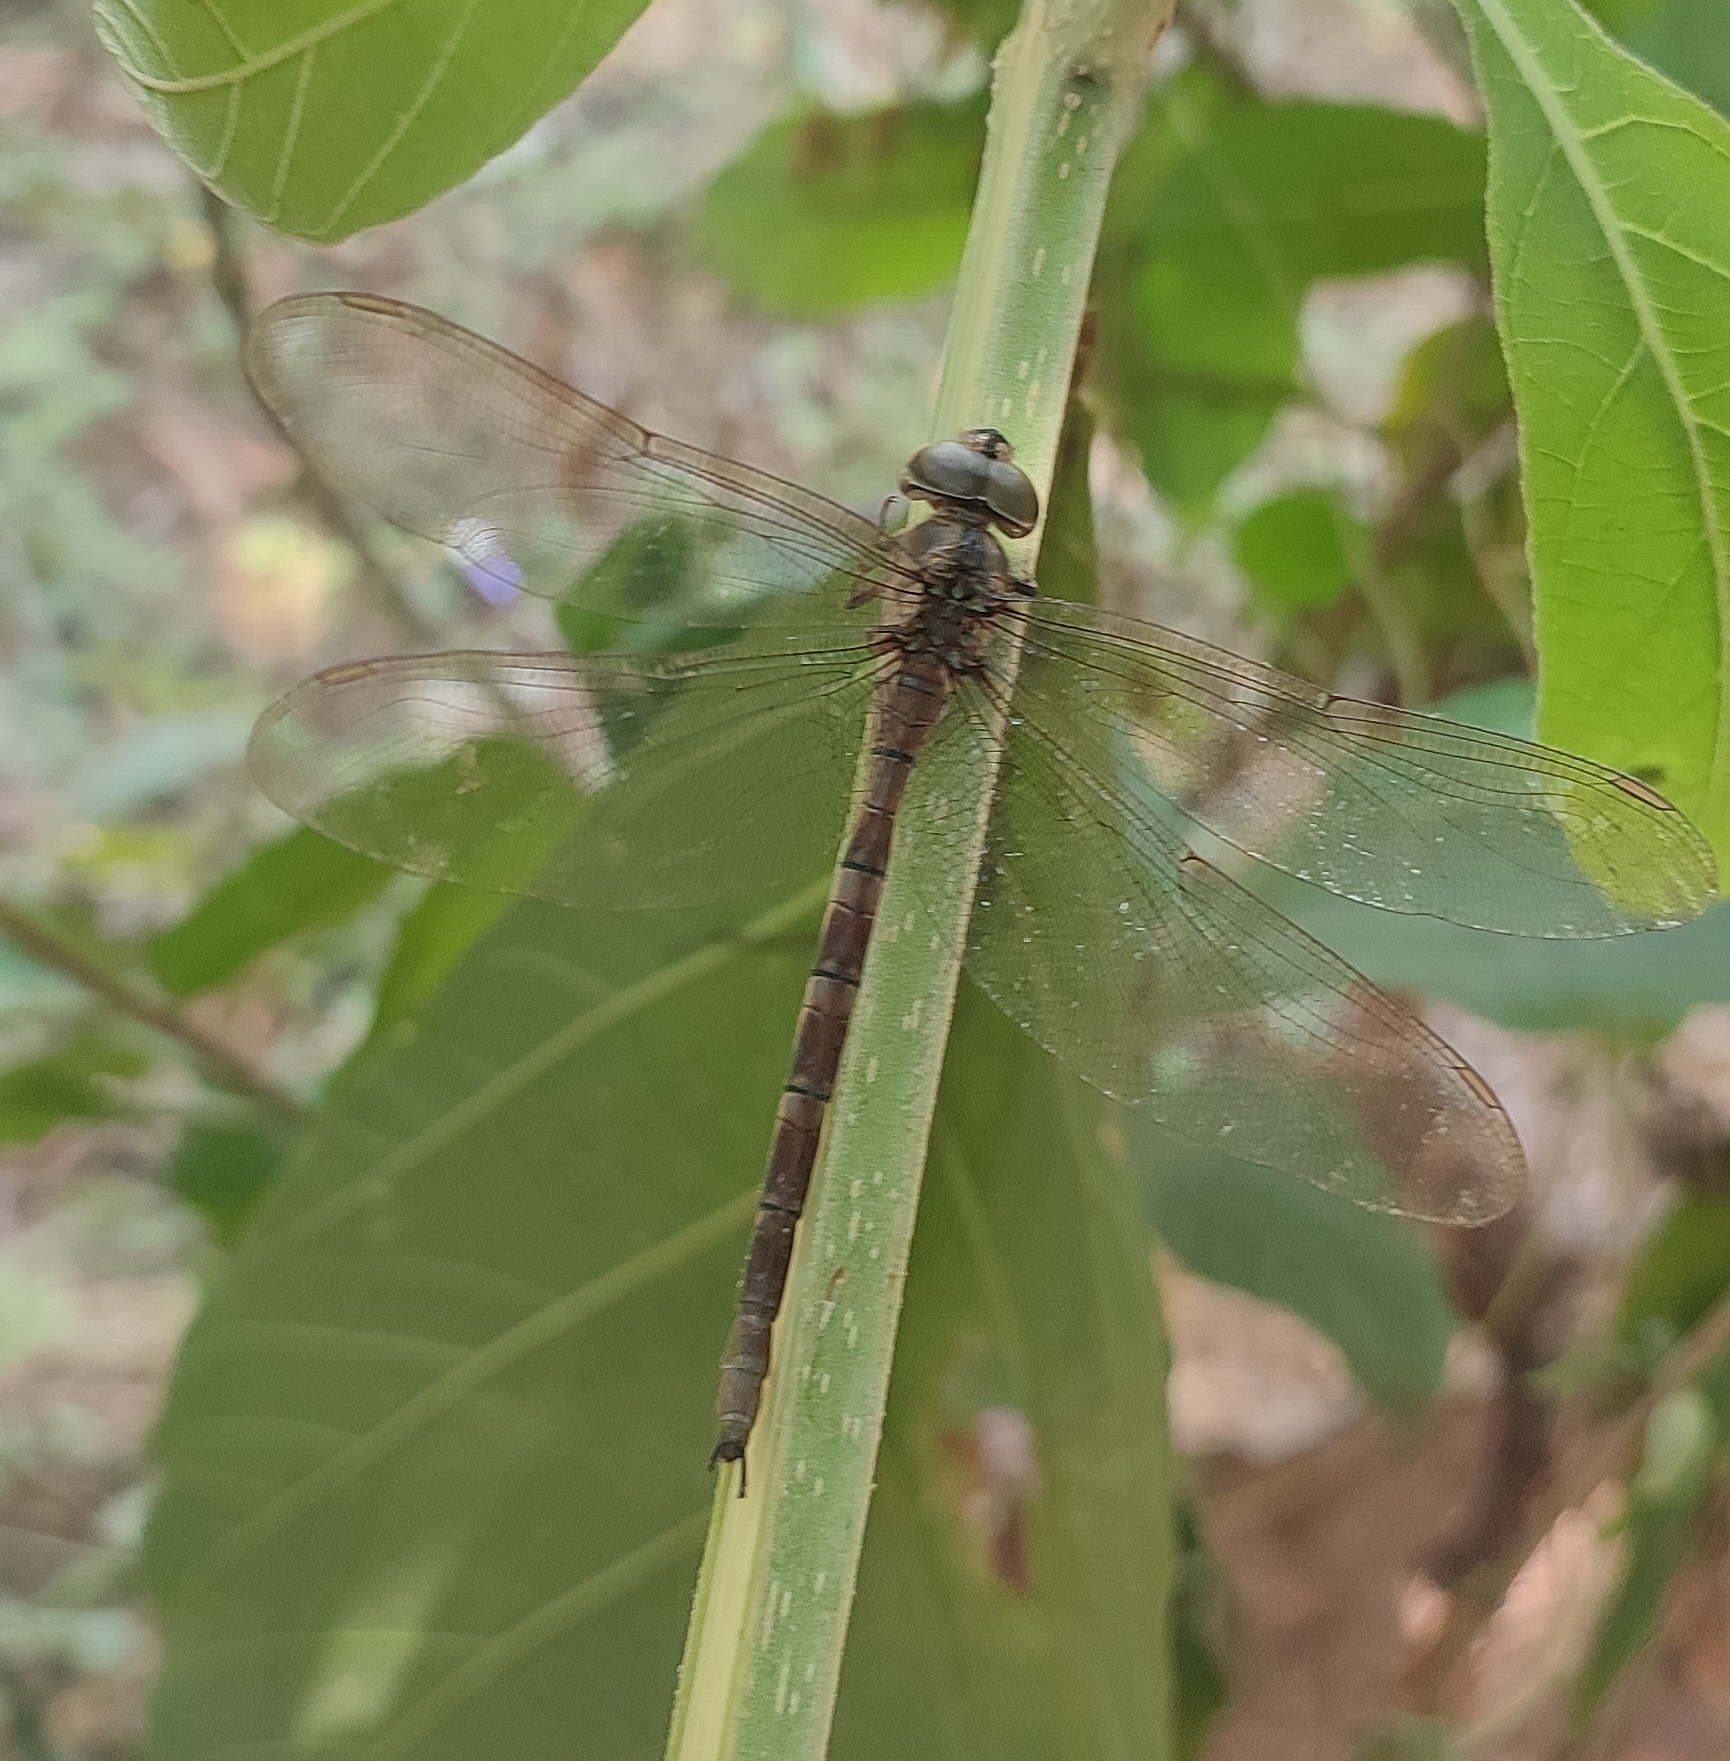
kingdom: Animalia
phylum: Arthropoda
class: Insecta
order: Odonata
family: Aeshnidae
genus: Gynacantha
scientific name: Gynacantha dravida
